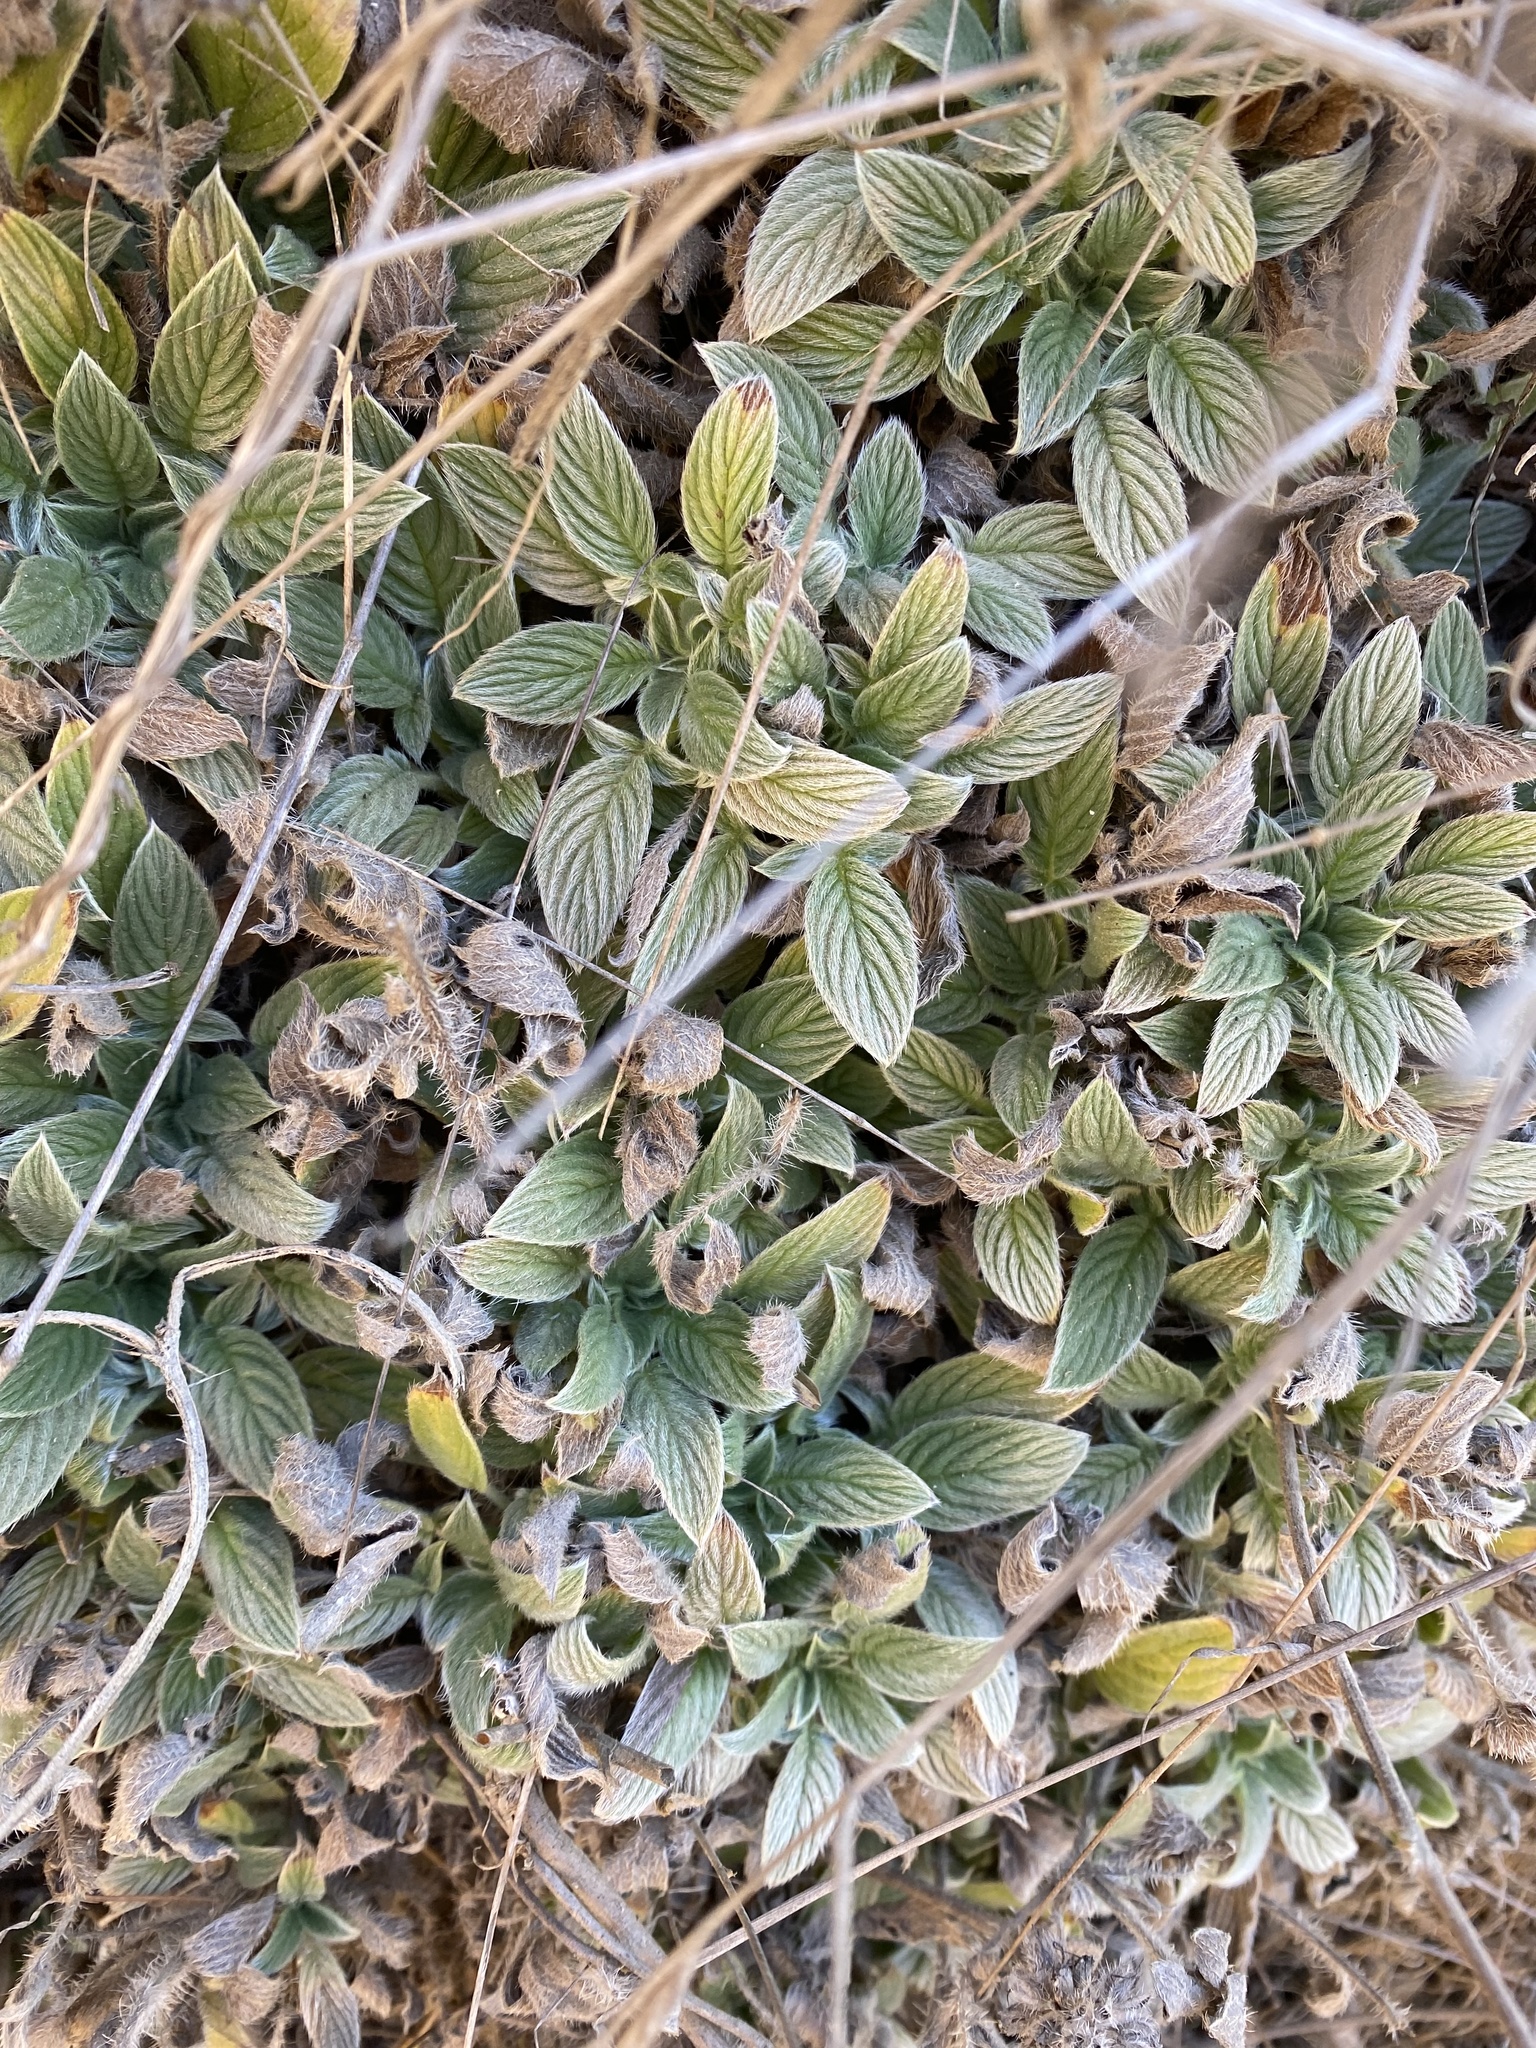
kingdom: Plantae
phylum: Tracheophyta
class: Magnoliopsida
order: Boraginales
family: Hydrophyllaceae
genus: Phacelia
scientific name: Phacelia californica
